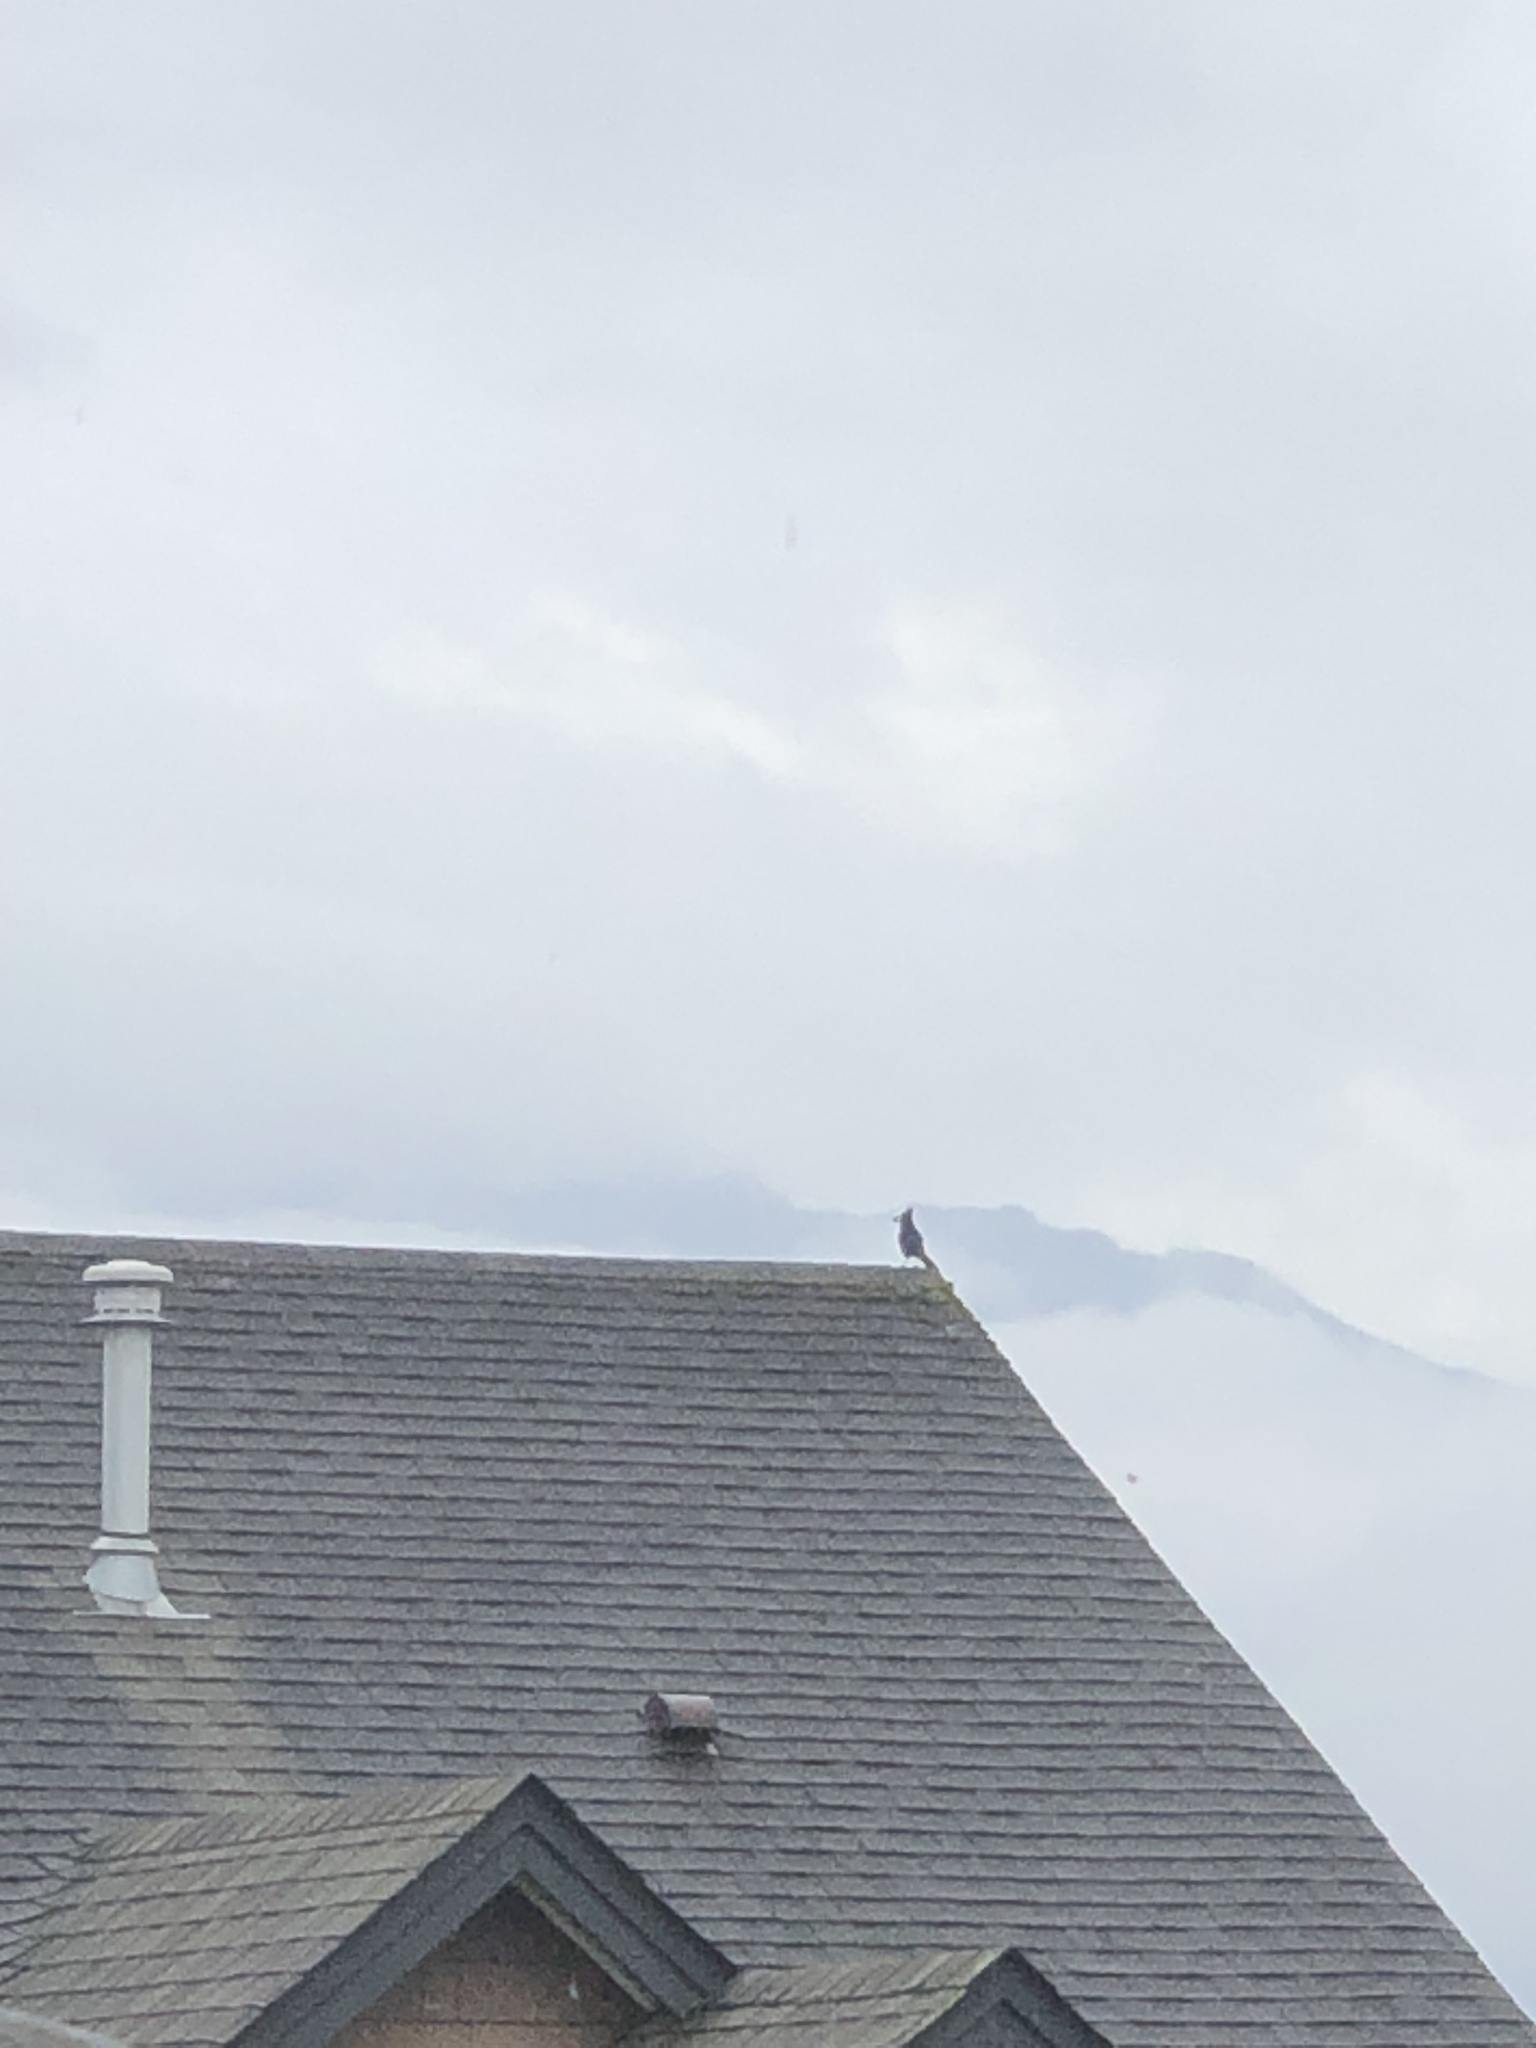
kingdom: Animalia
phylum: Chordata
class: Aves
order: Passeriformes
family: Corvidae
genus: Cyanocitta
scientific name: Cyanocitta stelleri
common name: Steller's jay
